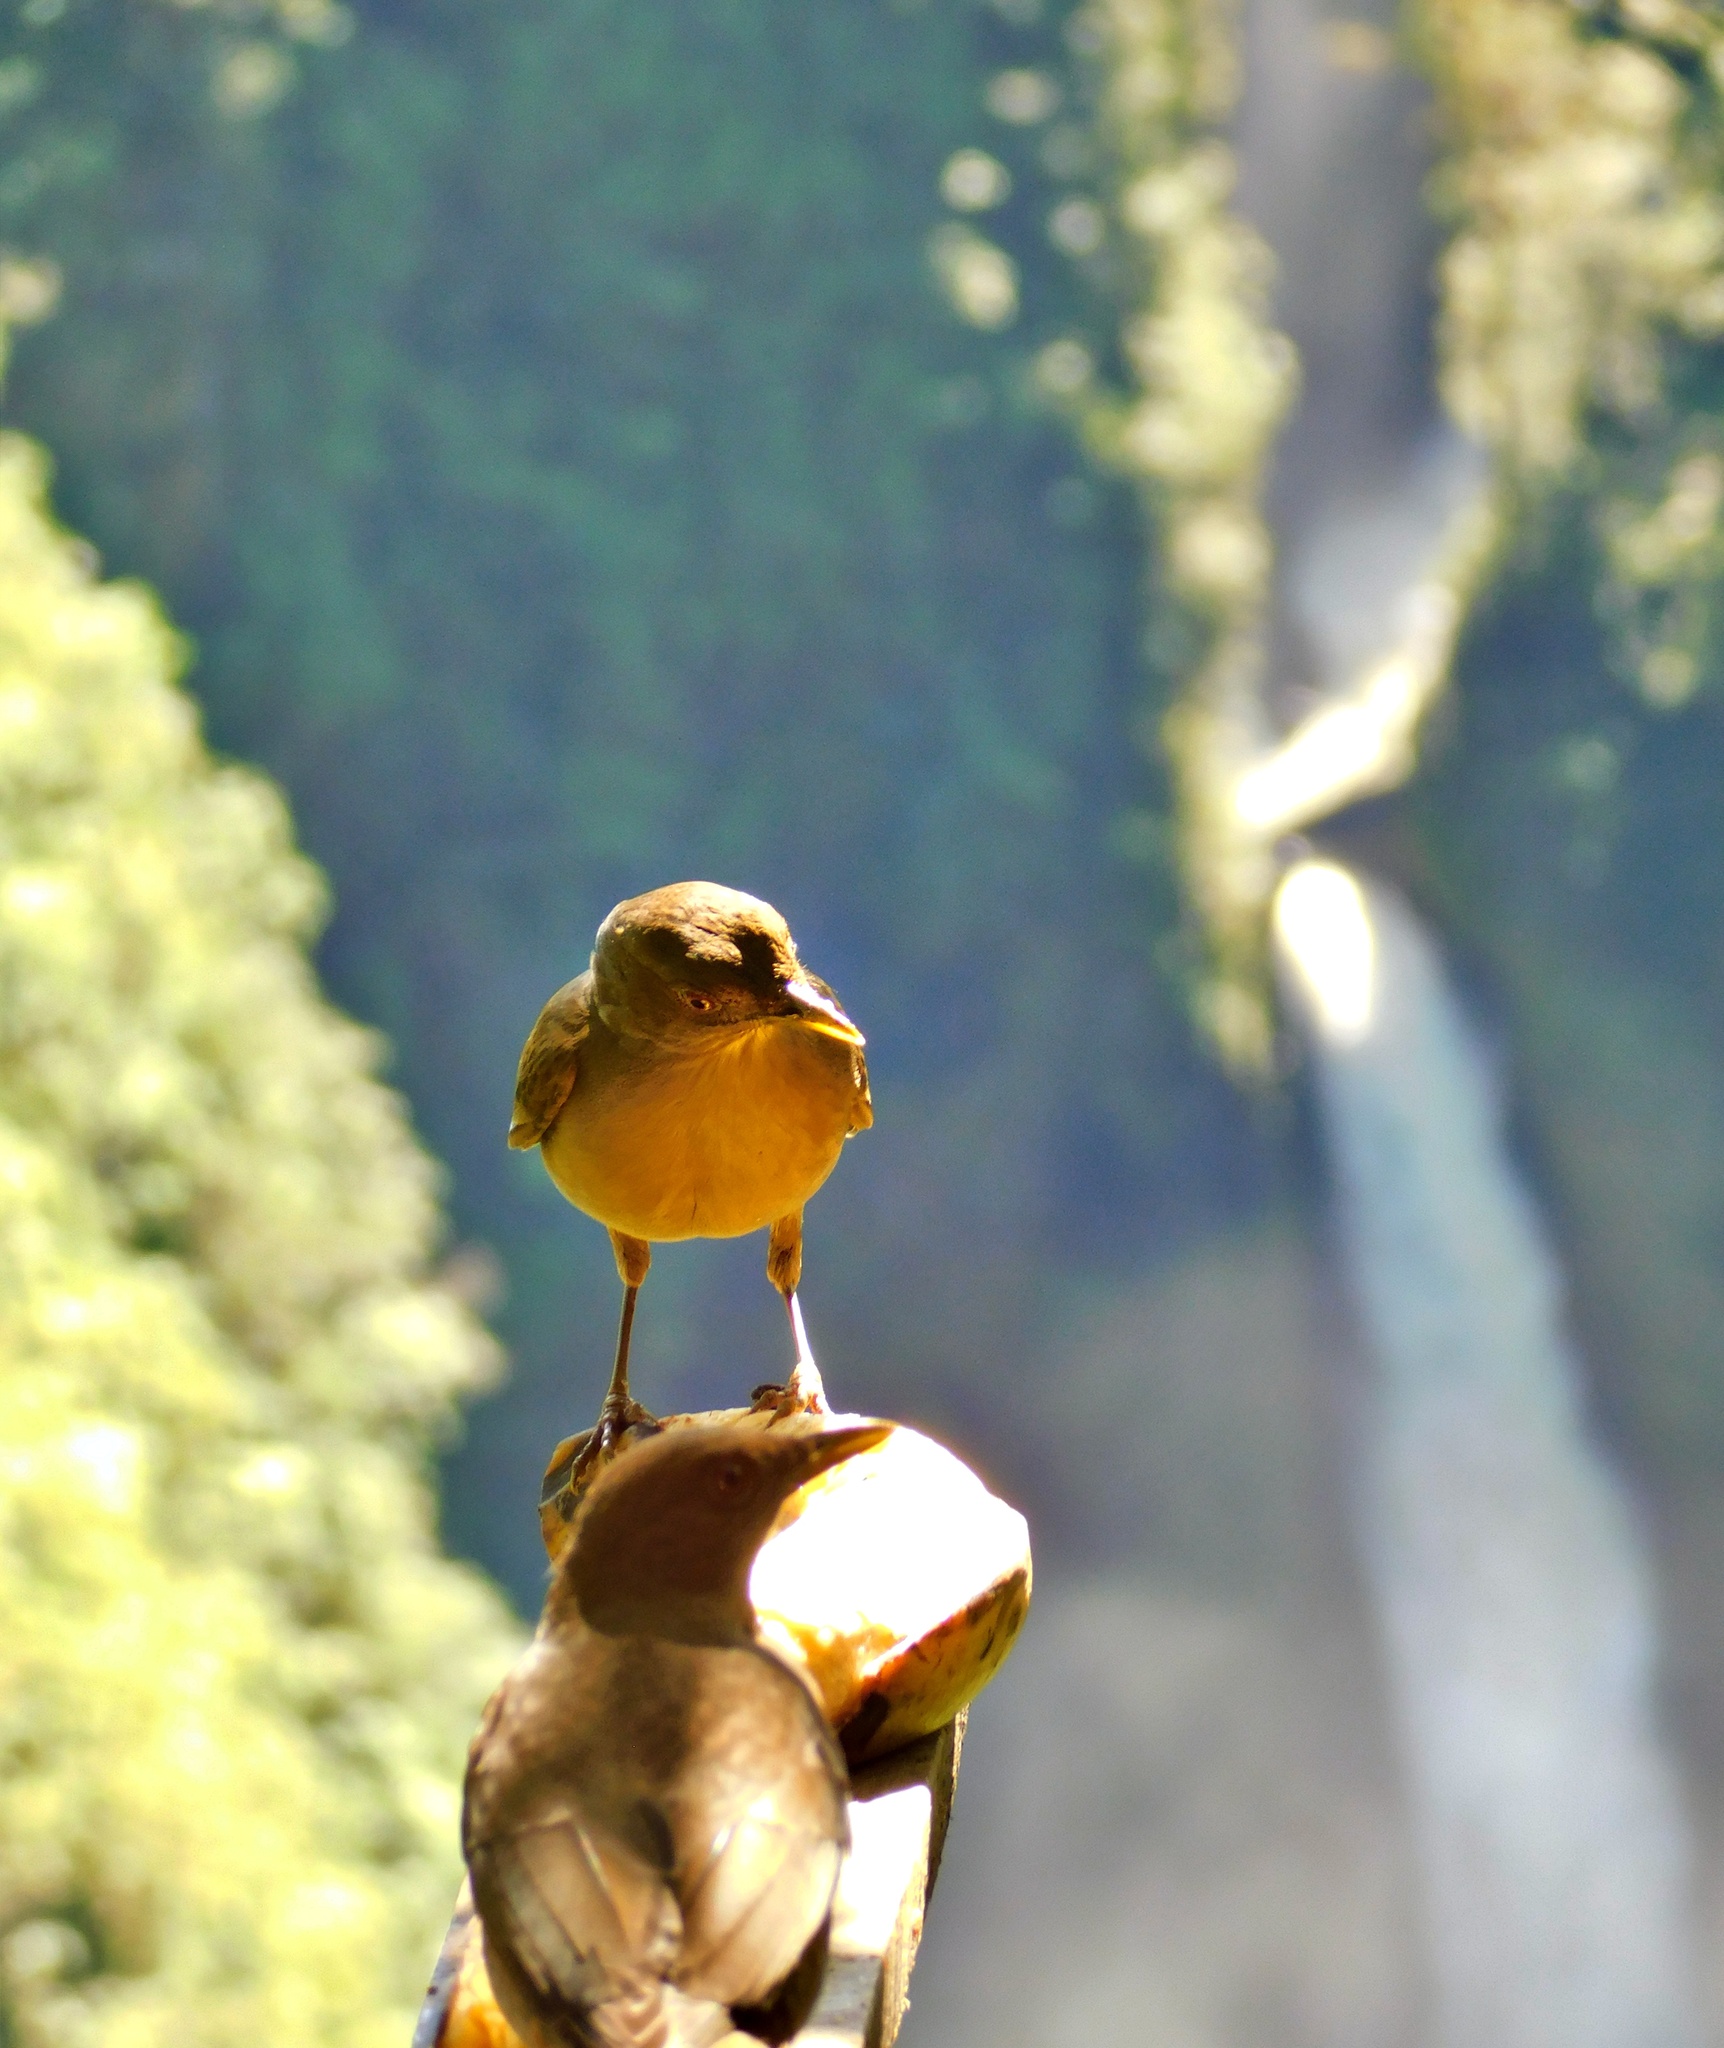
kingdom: Animalia
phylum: Chordata
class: Aves
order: Passeriformes
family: Turdidae
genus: Turdus
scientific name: Turdus grayi
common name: Clay-colored thrush
